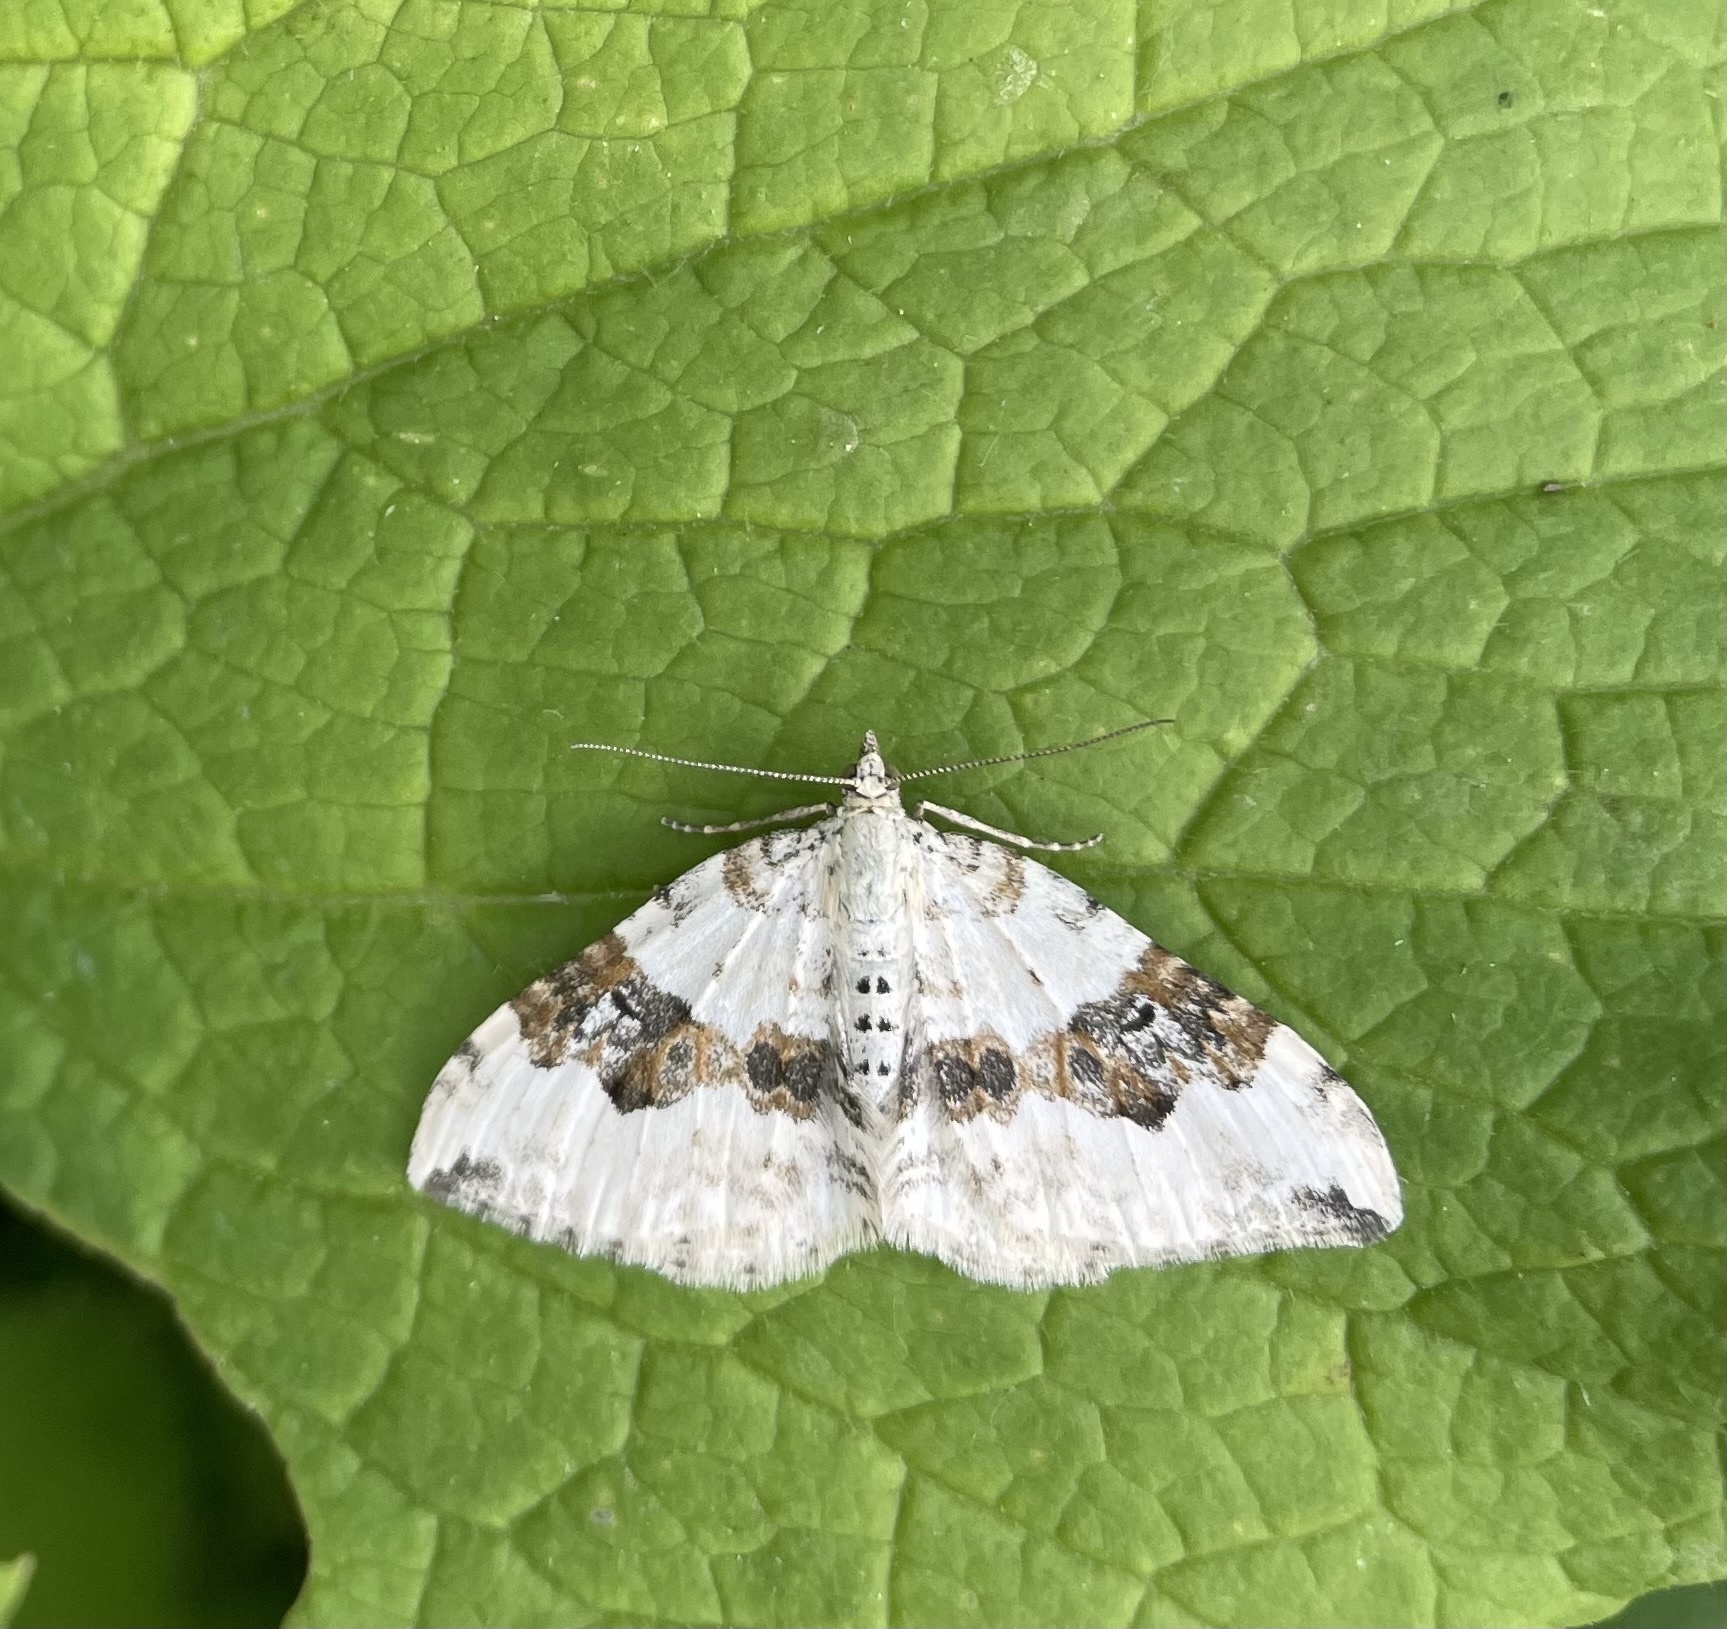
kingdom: Animalia
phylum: Arthropoda
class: Insecta
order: Lepidoptera
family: Geometridae
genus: Xanthorhoe
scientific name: Xanthorhoe montanata
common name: Silver-ground carpet
